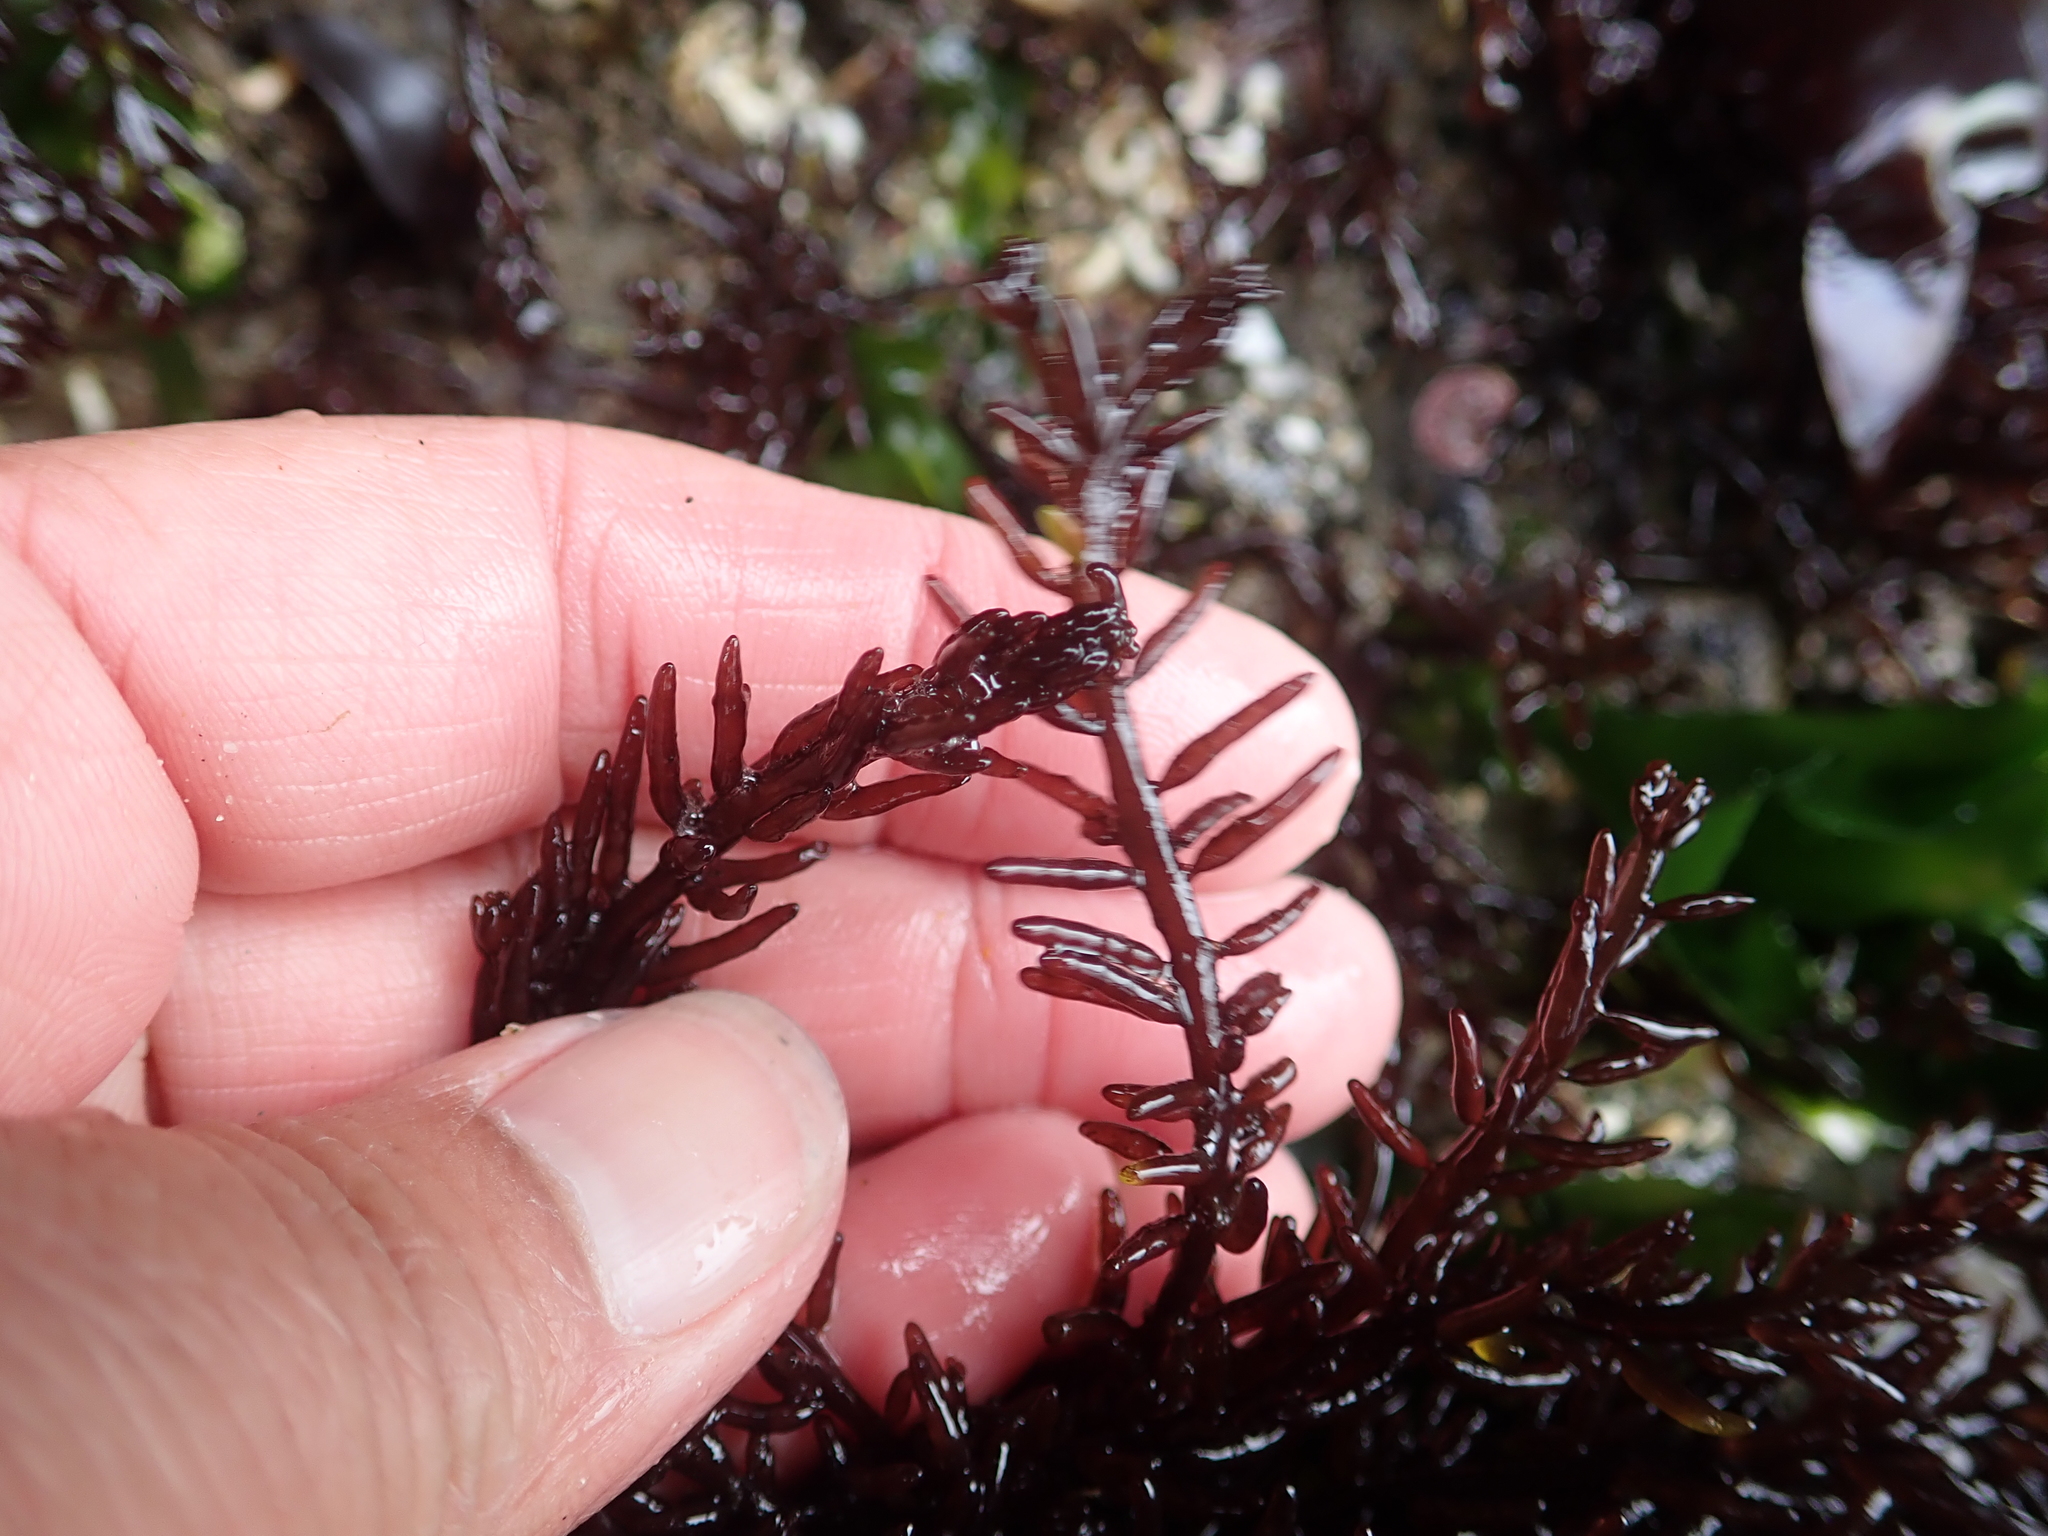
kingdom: Plantae
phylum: Rhodophyta
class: Florideophyceae
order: Rhodymeniales
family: Champiaceae
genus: Neogastroclonium
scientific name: Neogastroclonium subarticulatum
